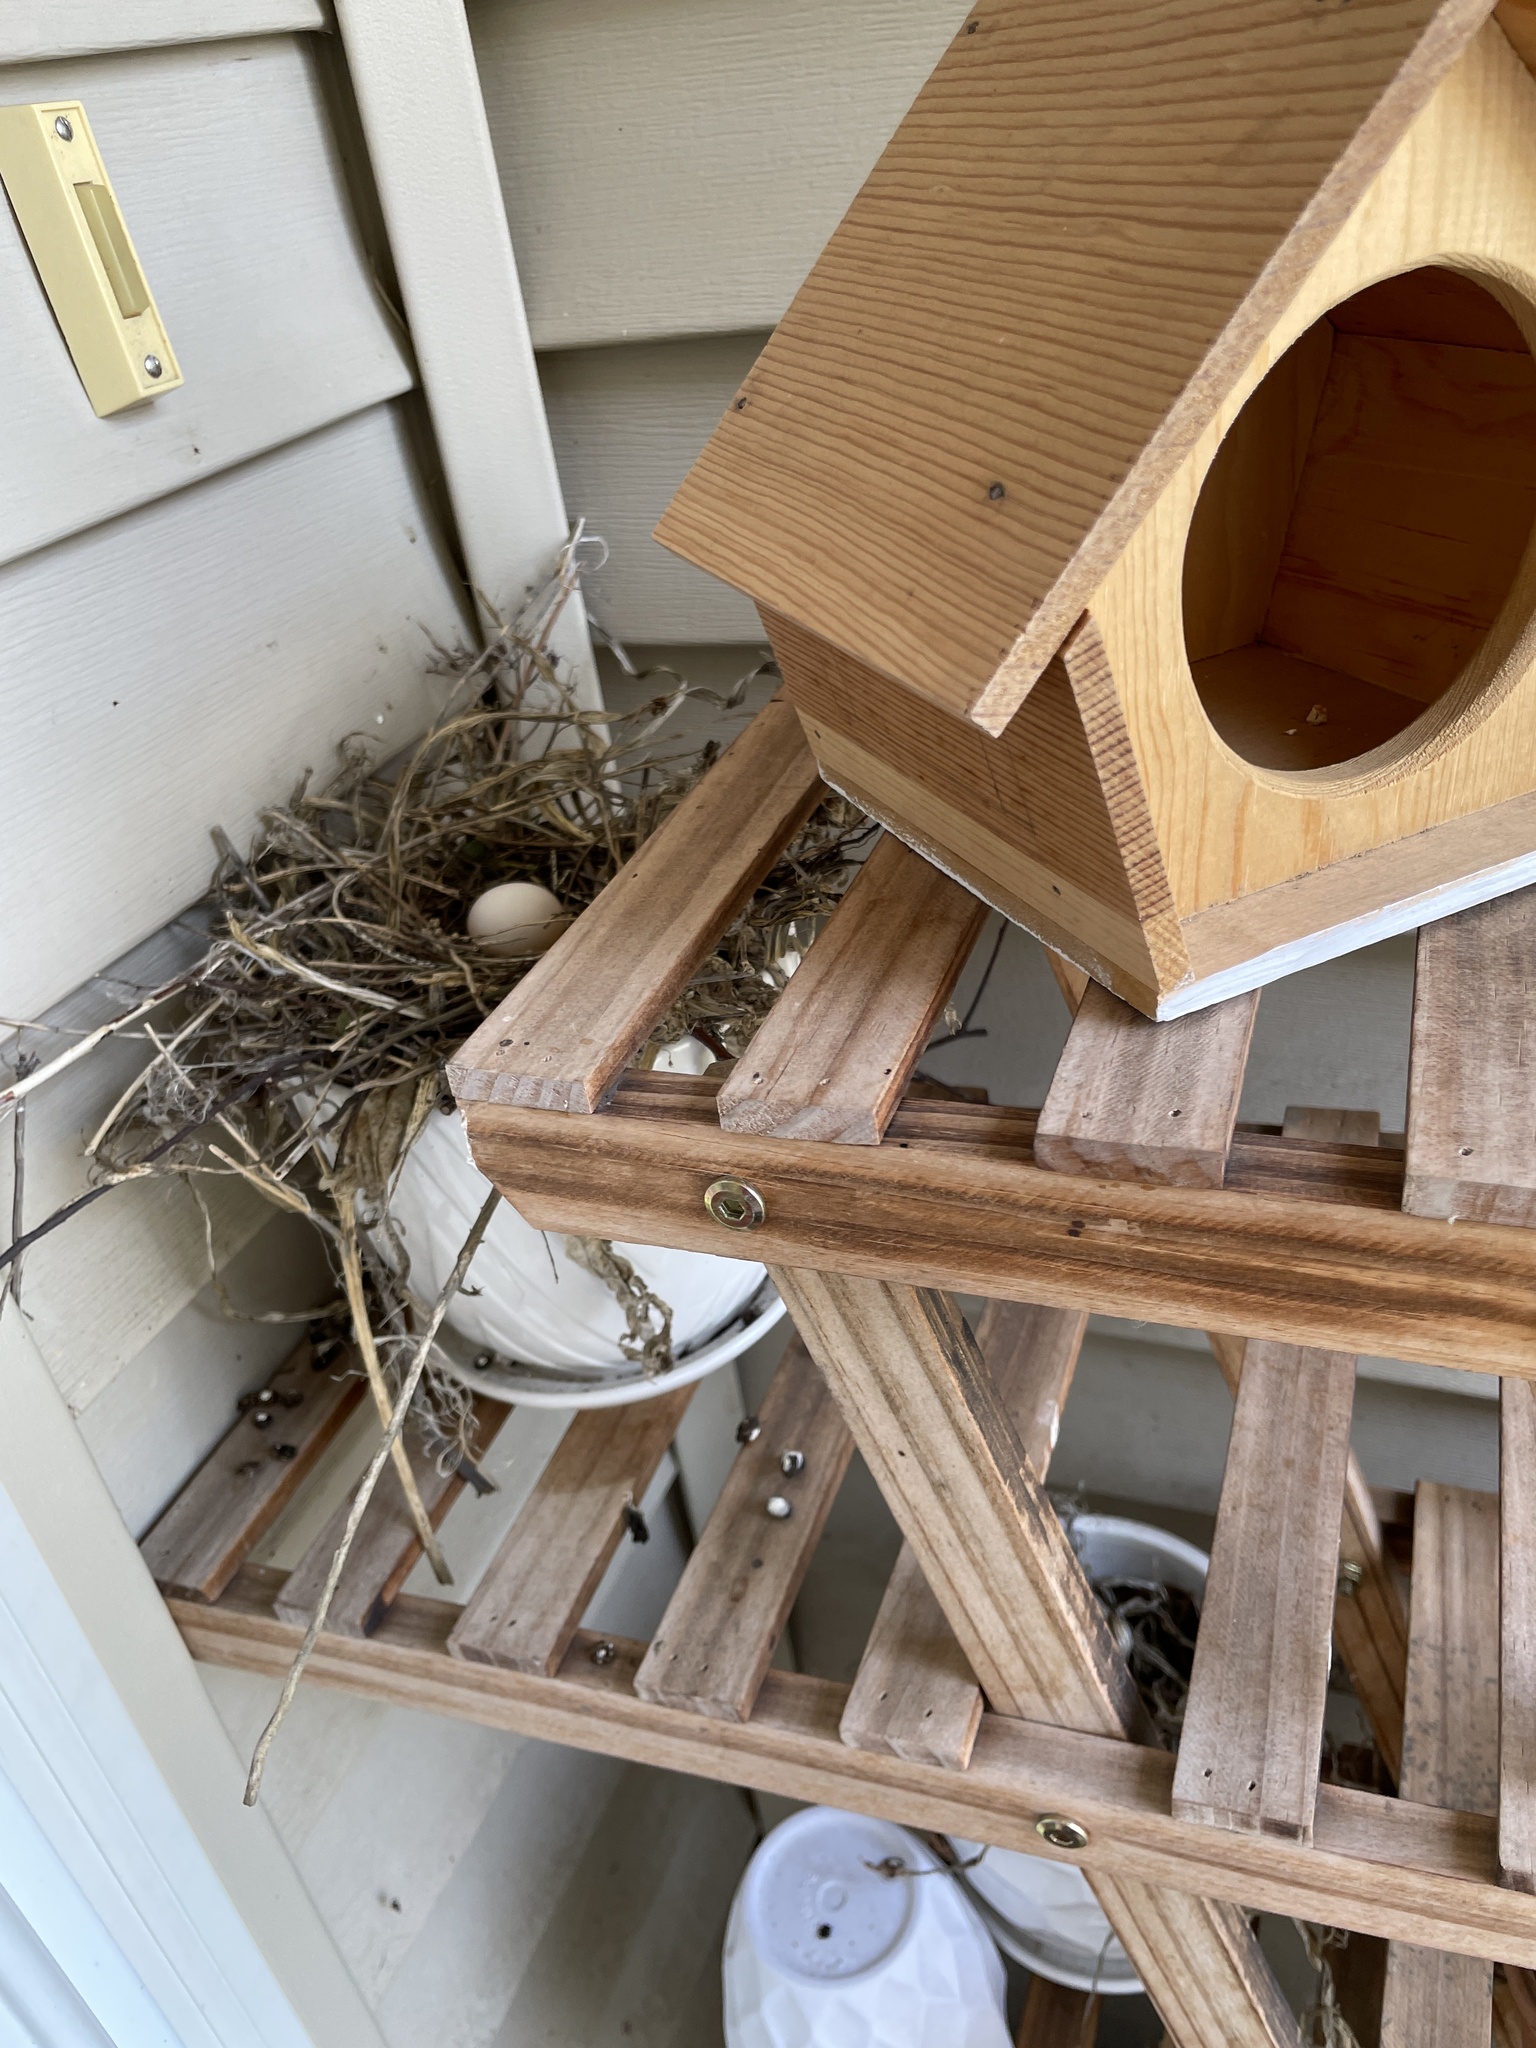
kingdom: Animalia
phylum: Chordata
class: Aves
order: Columbiformes
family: Columbidae
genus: Zenaida
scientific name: Zenaida macroura
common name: Mourning dove
